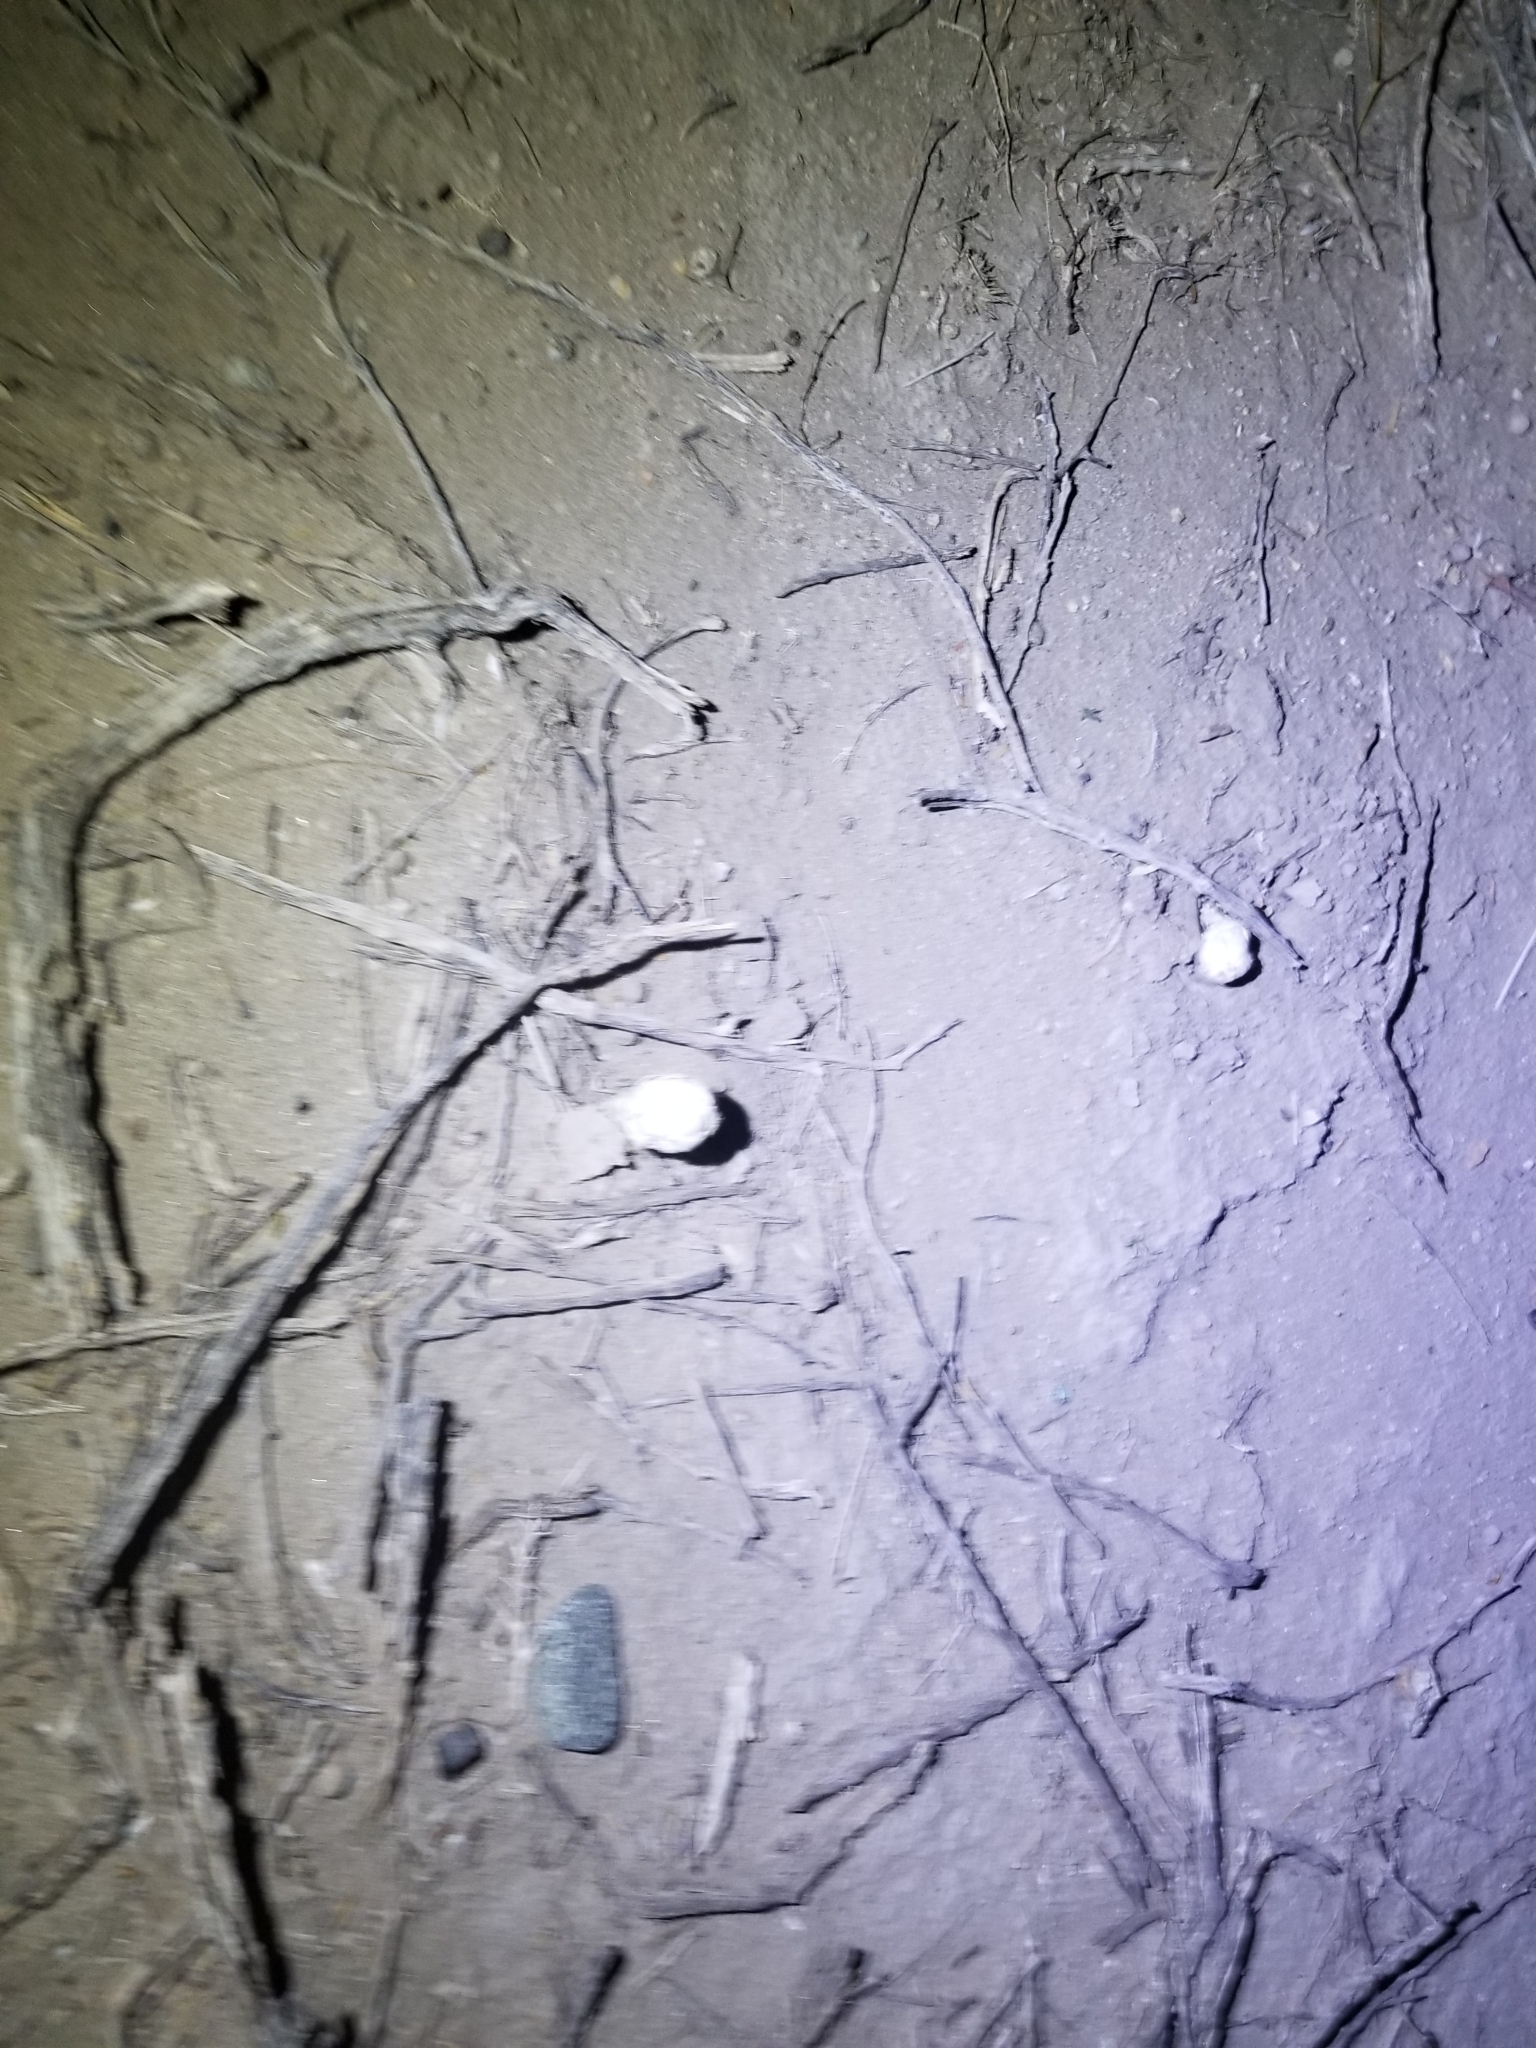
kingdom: Fungi
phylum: Basidiomycota
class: Agaricomycetes
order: Agaricales
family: Agaricaceae
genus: Podaxis
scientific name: Podaxis pistillaris
